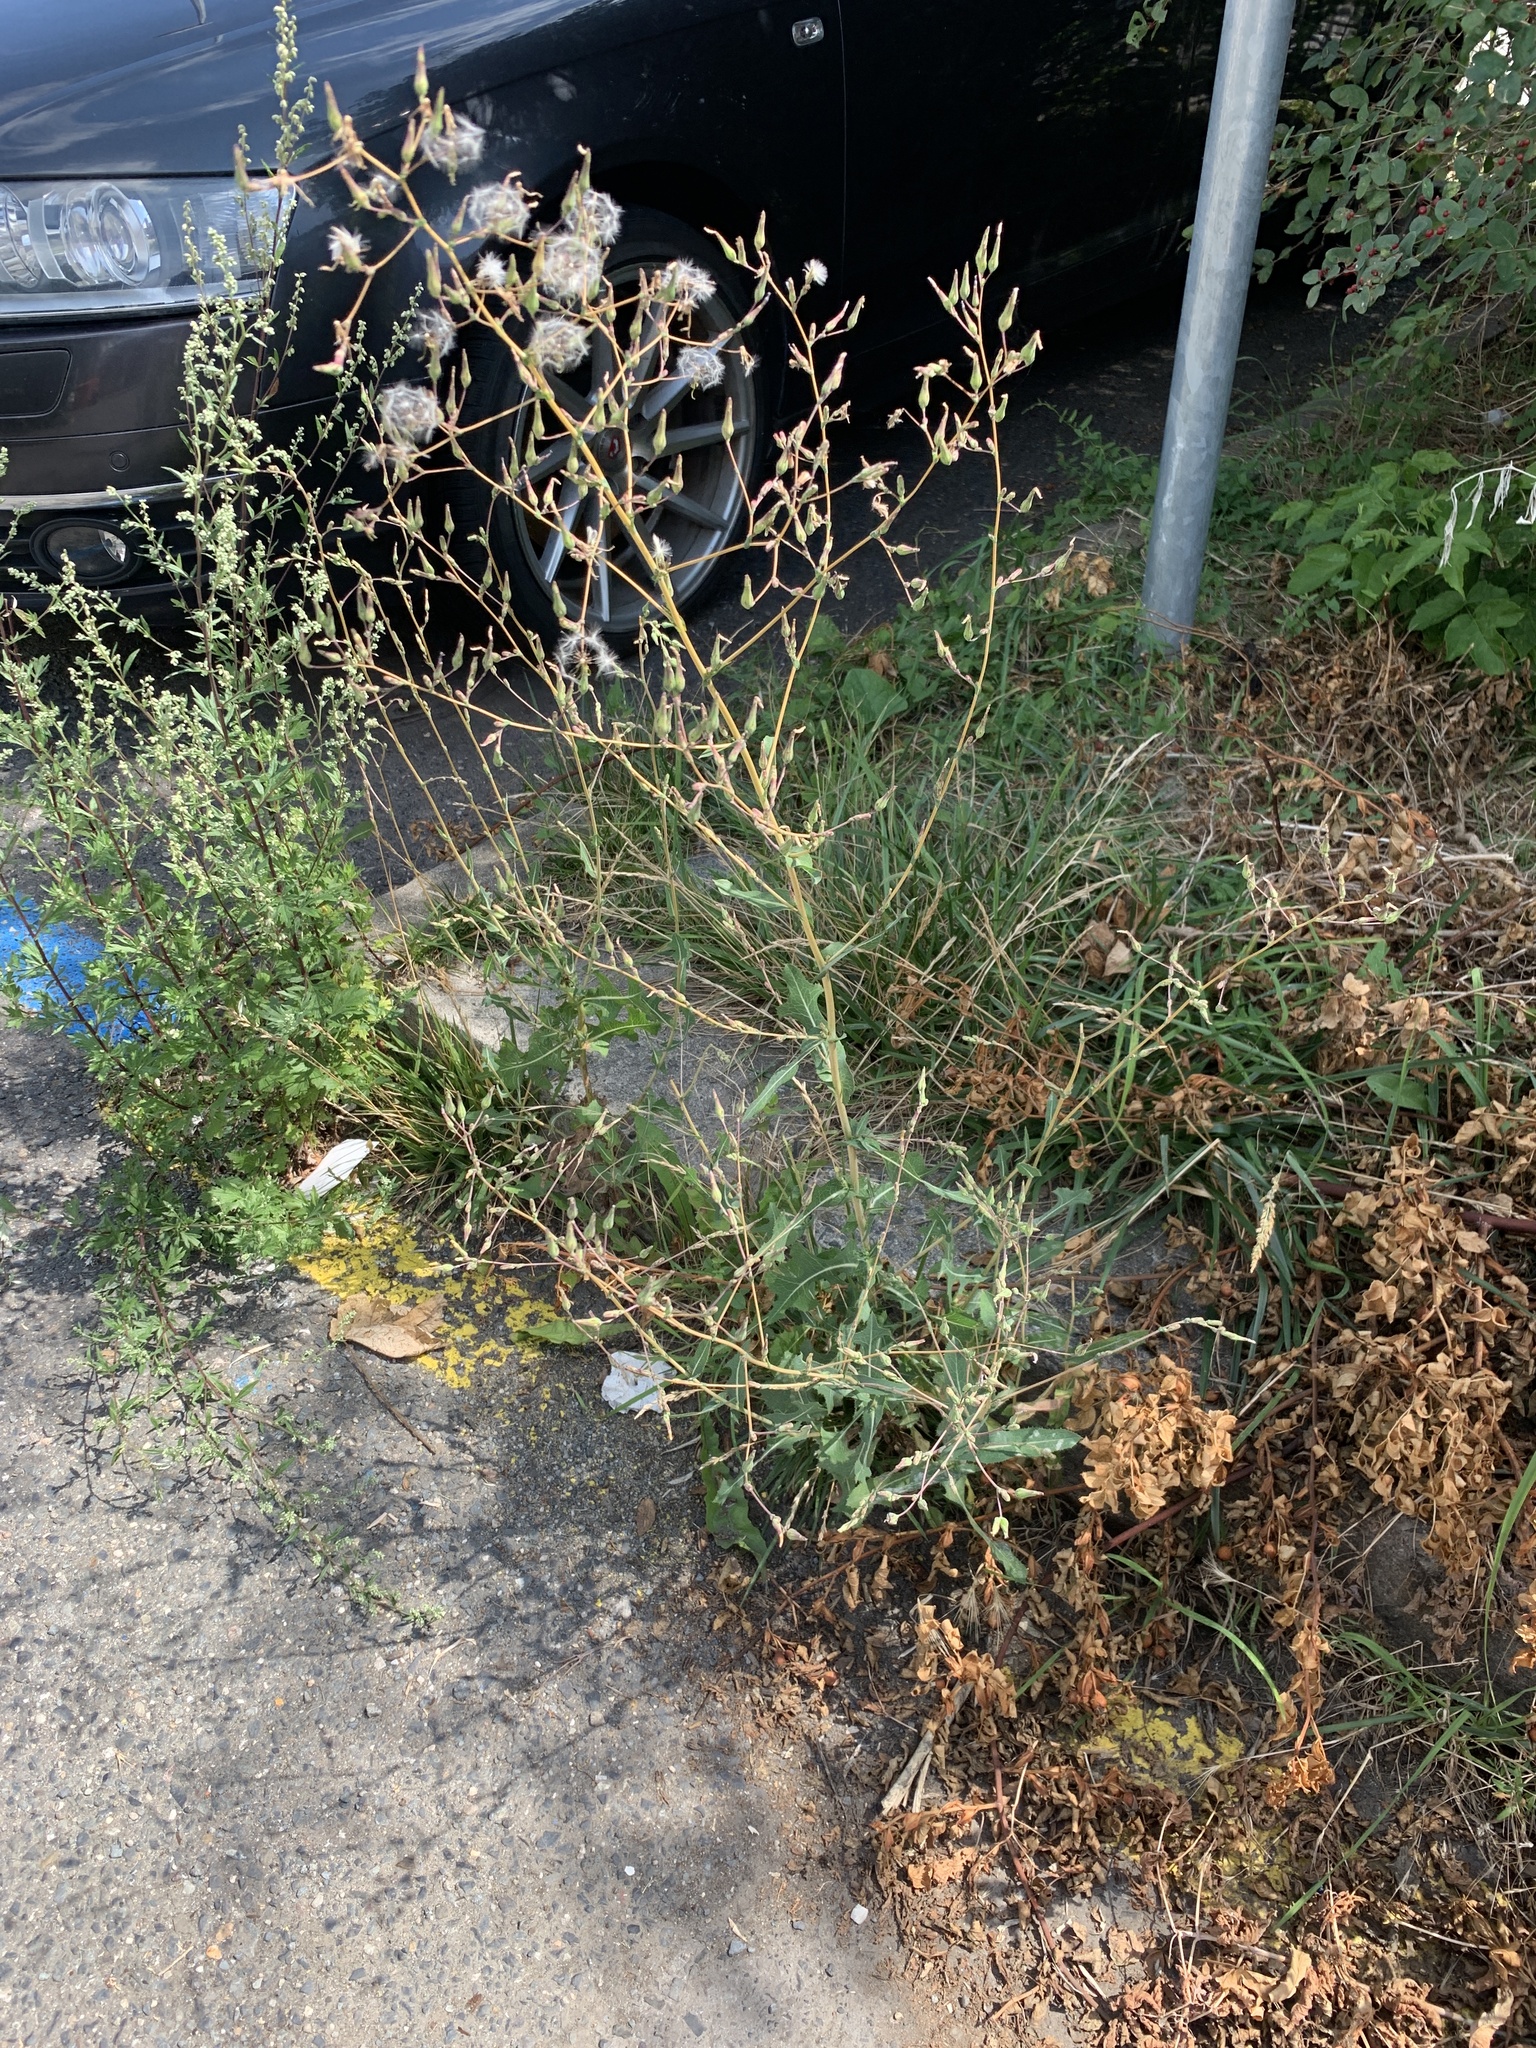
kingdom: Plantae
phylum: Tracheophyta
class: Magnoliopsida
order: Asterales
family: Asteraceae
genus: Lactuca
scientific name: Lactuca serriola
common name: Prickly lettuce
